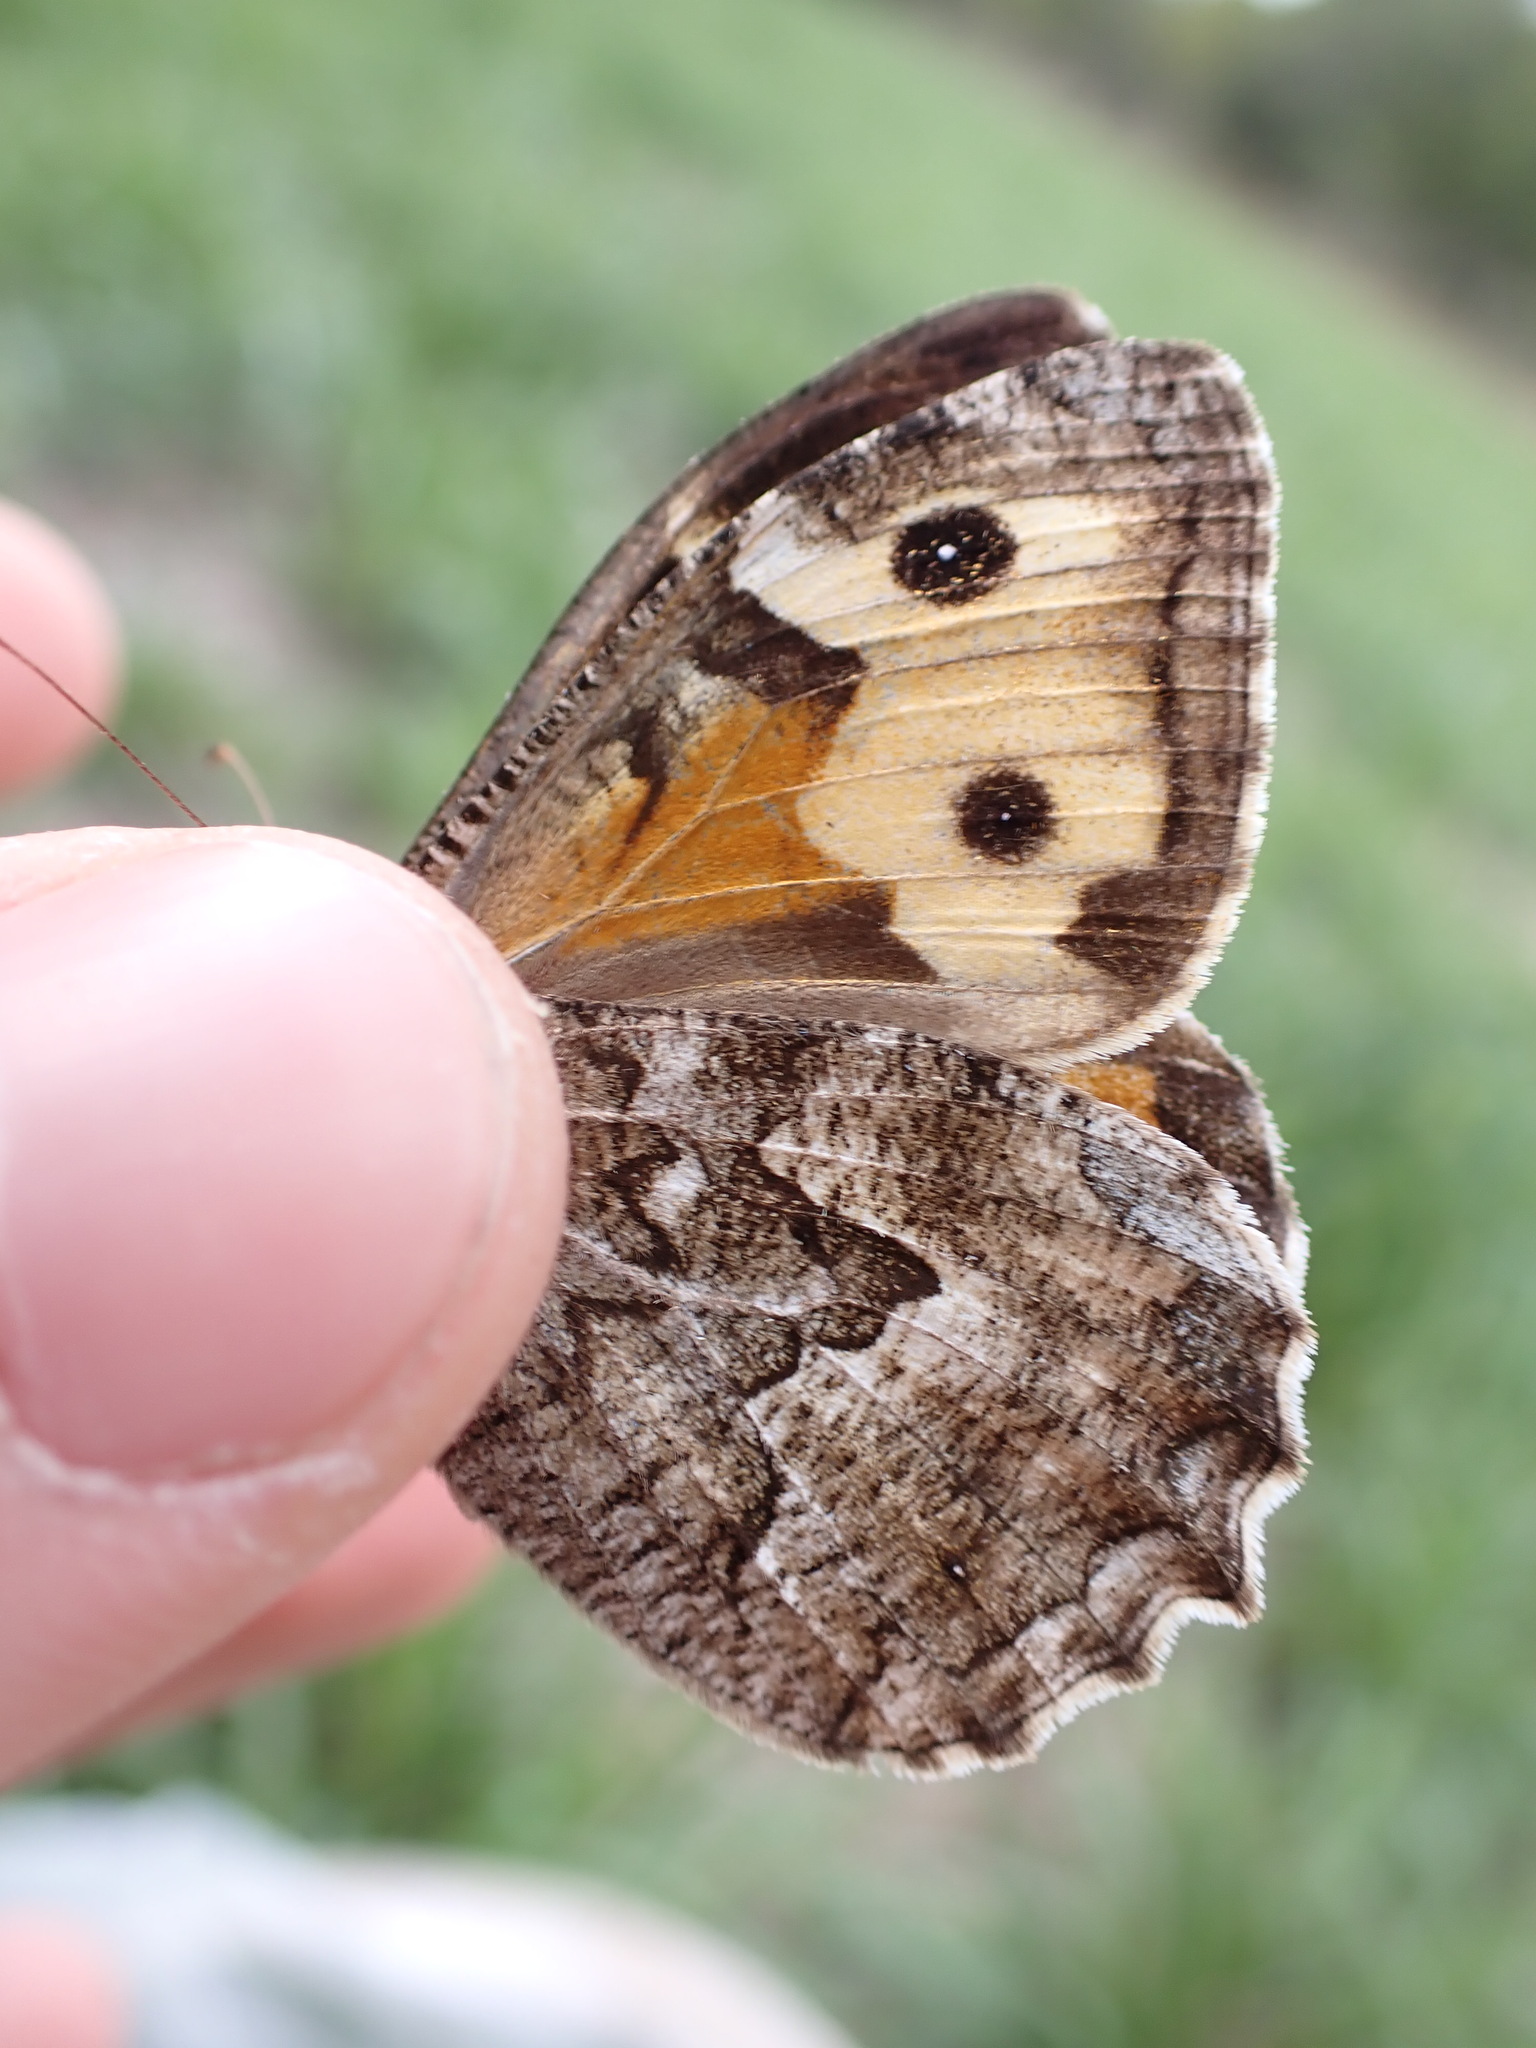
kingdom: Animalia
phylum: Arthropoda
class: Insecta
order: Lepidoptera
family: Nymphalidae
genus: Hipparchia
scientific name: Hipparchia semele
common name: Grayling
